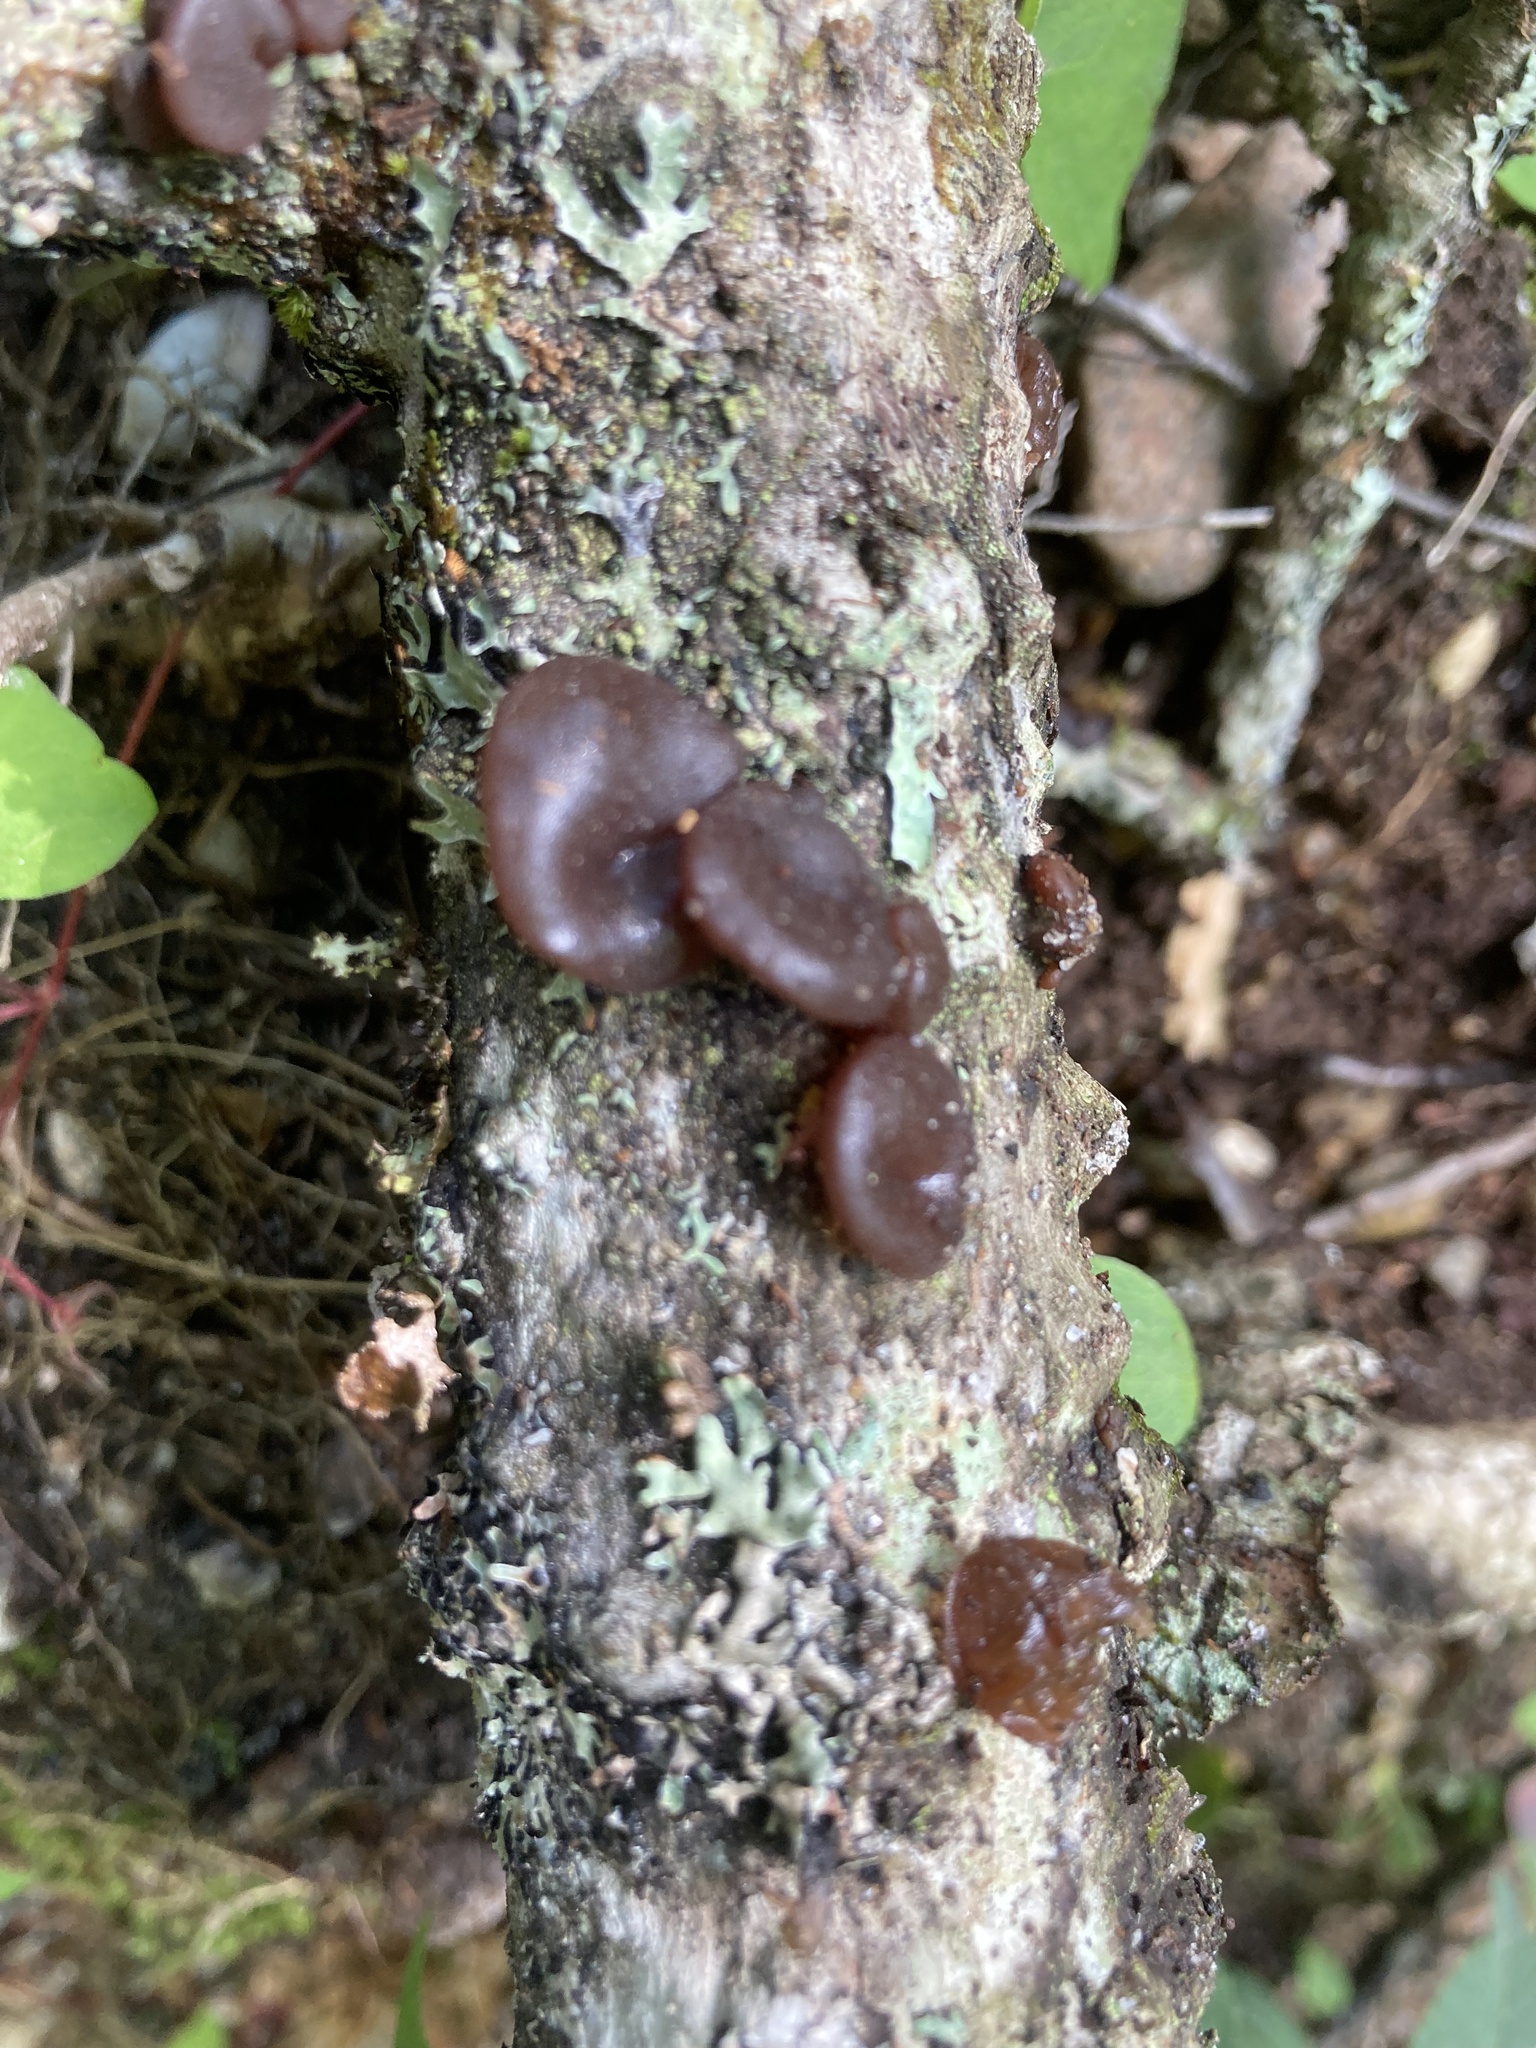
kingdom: Fungi
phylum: Basidiomycota
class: Agaricomycetes
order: Auriculariales
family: Auriculariaceae
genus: Exidia
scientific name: Exidia
